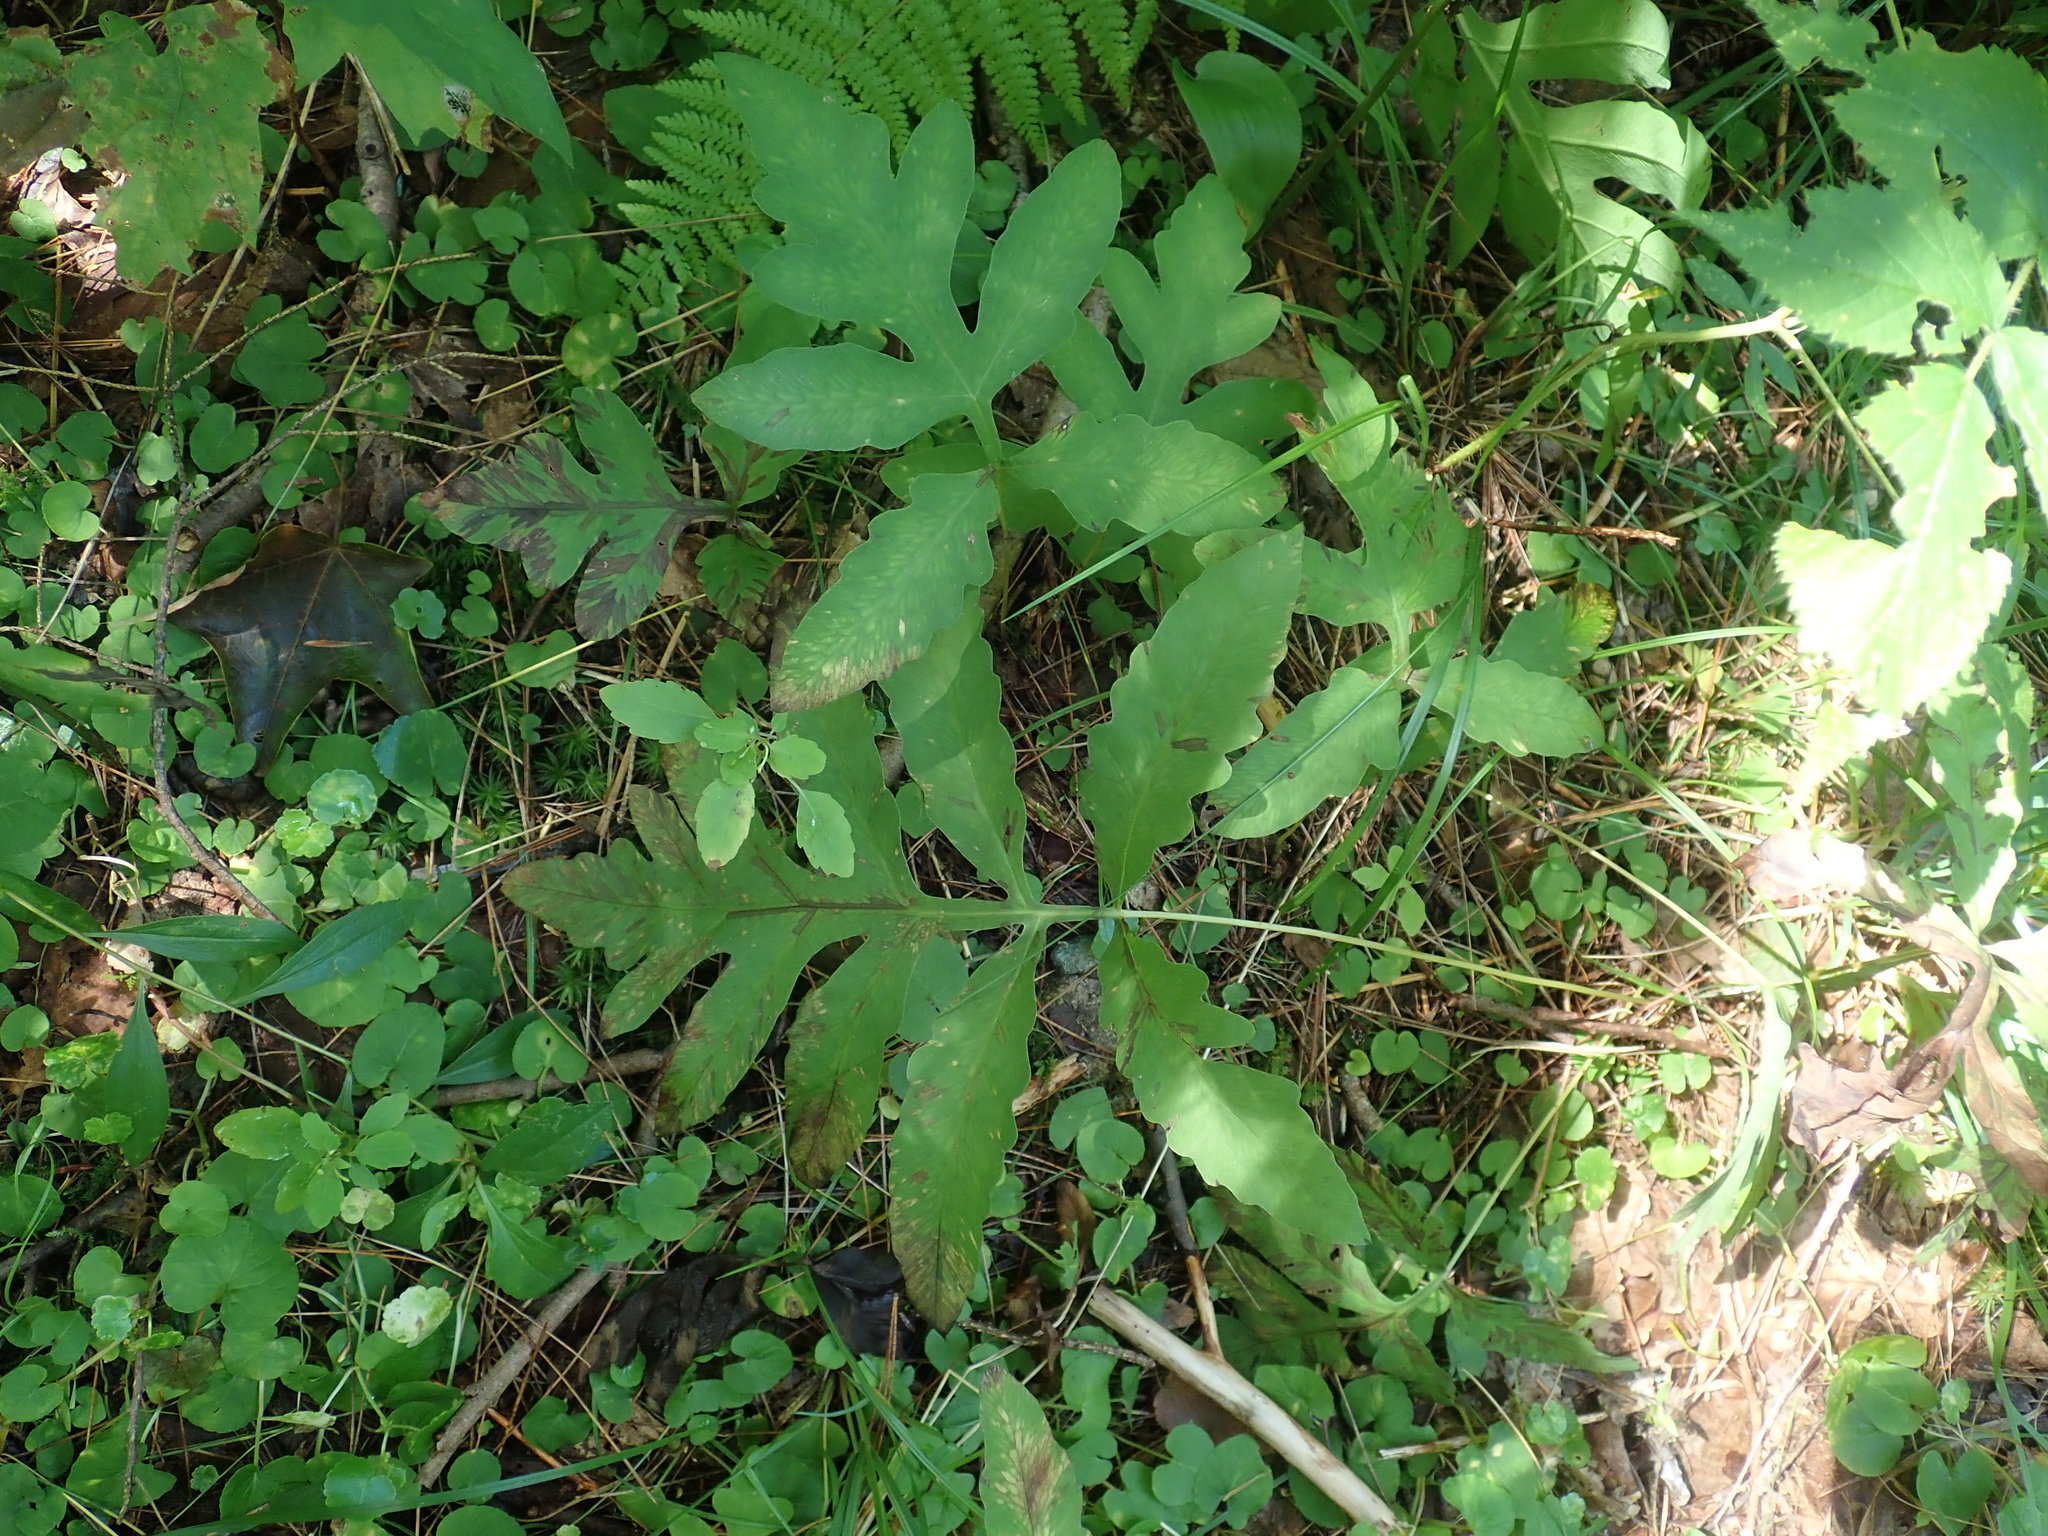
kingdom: Plantae
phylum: Tracheophyta
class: Polypodiopsida
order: Polypodiales
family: Onocleaceae
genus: Onoclea
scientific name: Onoclea sensibilis
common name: Sensitive fern
